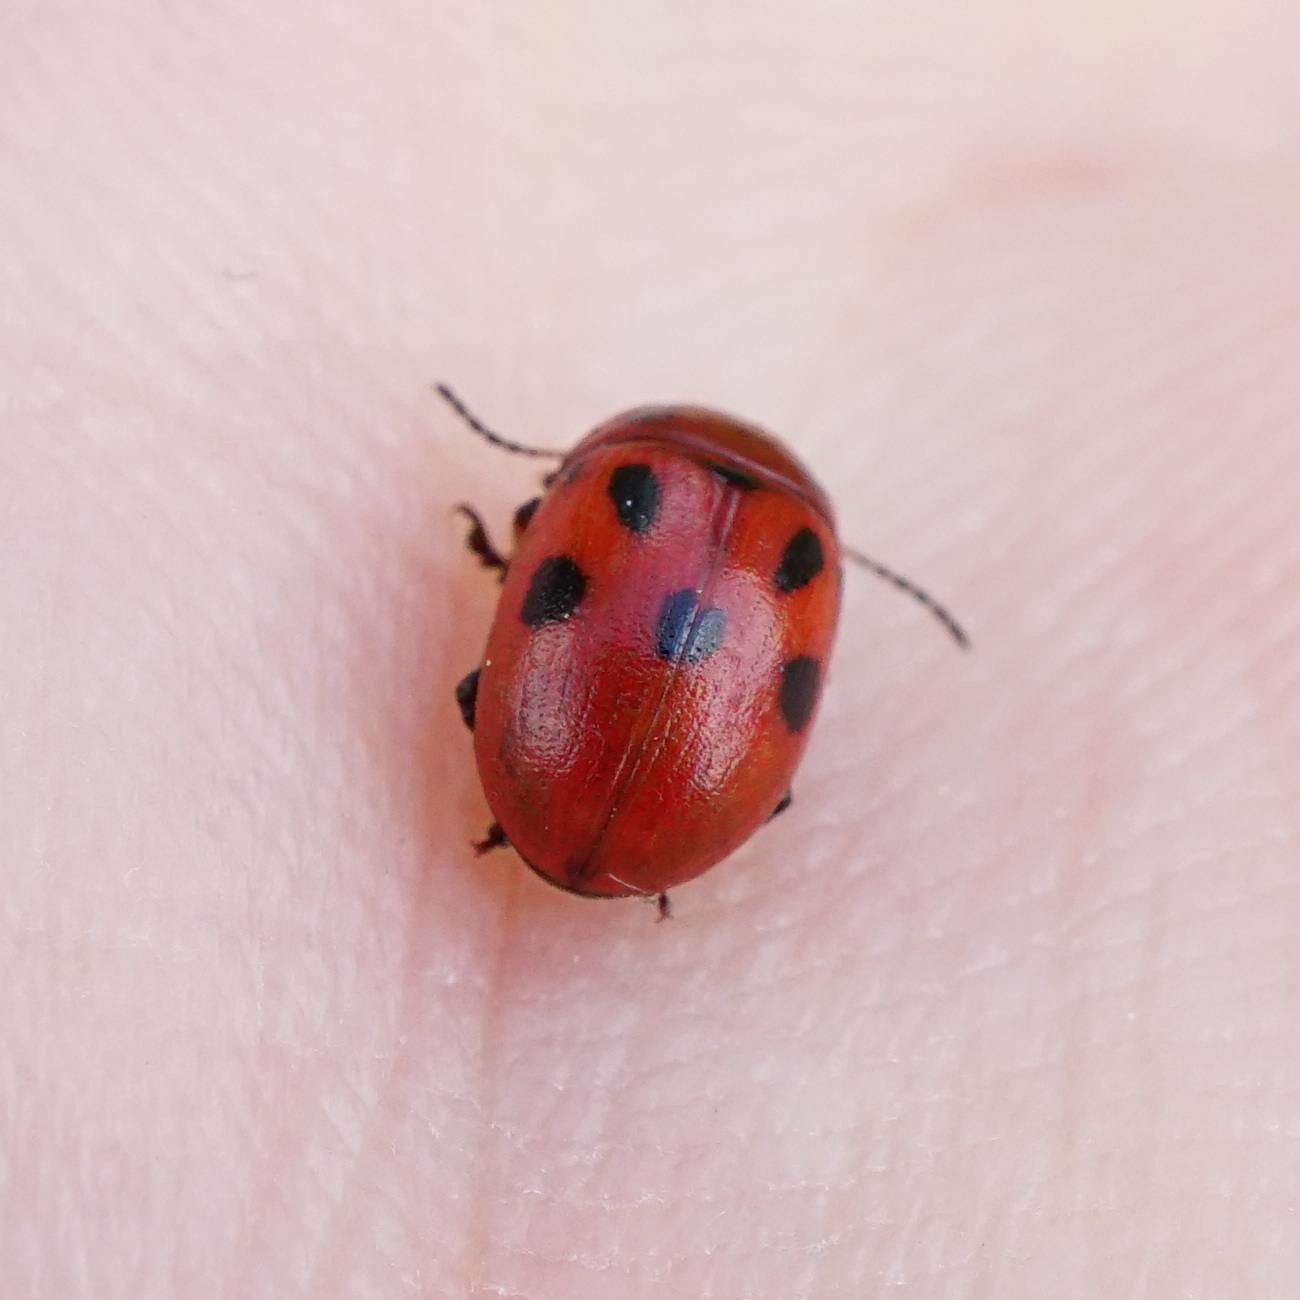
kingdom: Animalia
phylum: Arthropoda
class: Insecta
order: Coleoptera
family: Chrysomelidae
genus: Gonioctena
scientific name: Gonioctena fornicata
